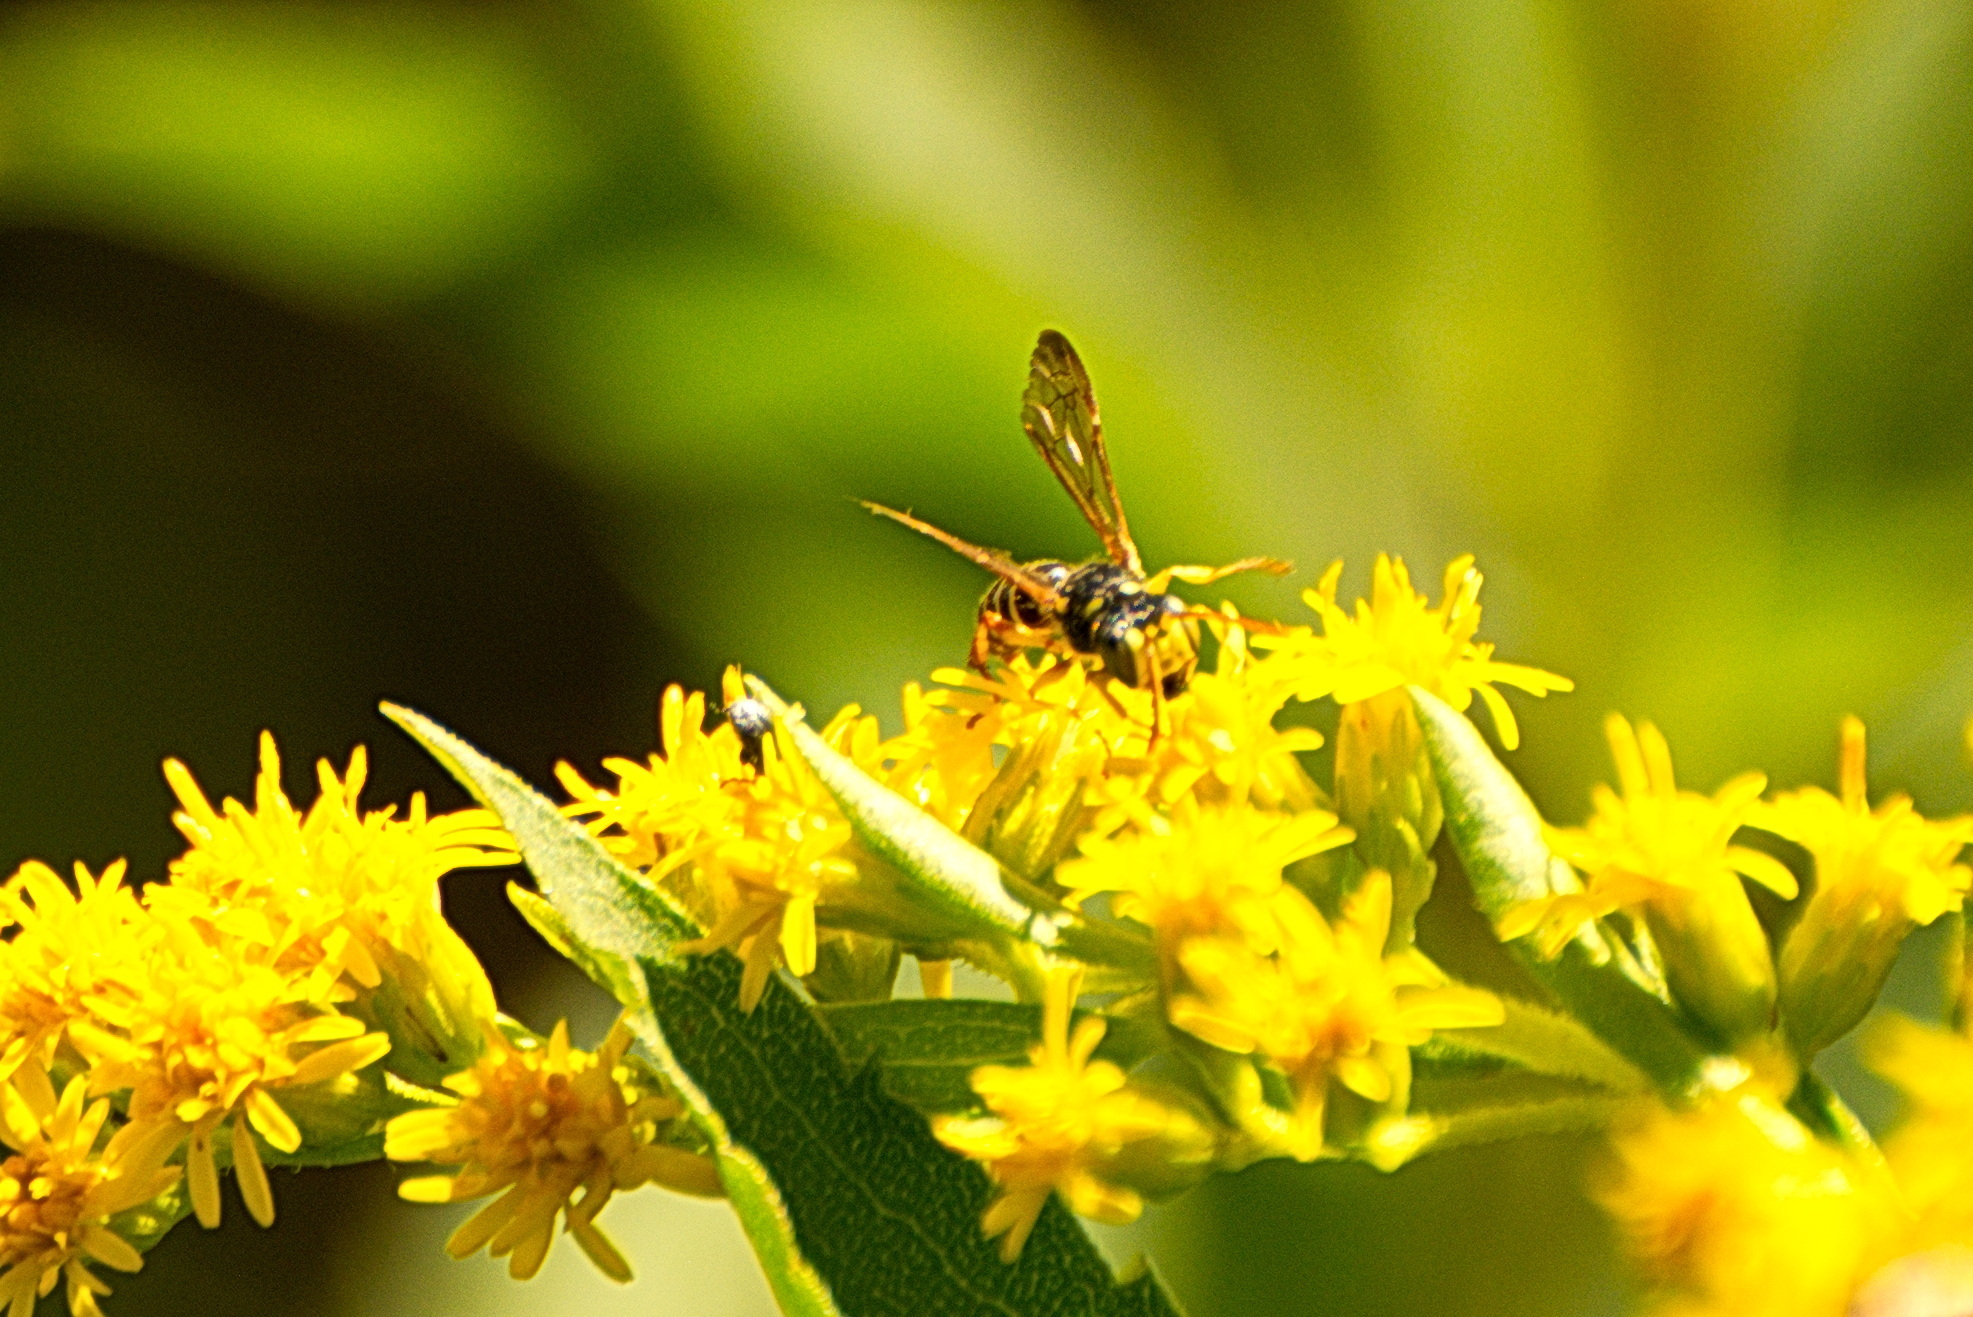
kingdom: Animalia
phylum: Arthropoda
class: Insecta
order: Hymenoptera
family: Crabronidae
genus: Cerceris
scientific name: Cerceris deserta
